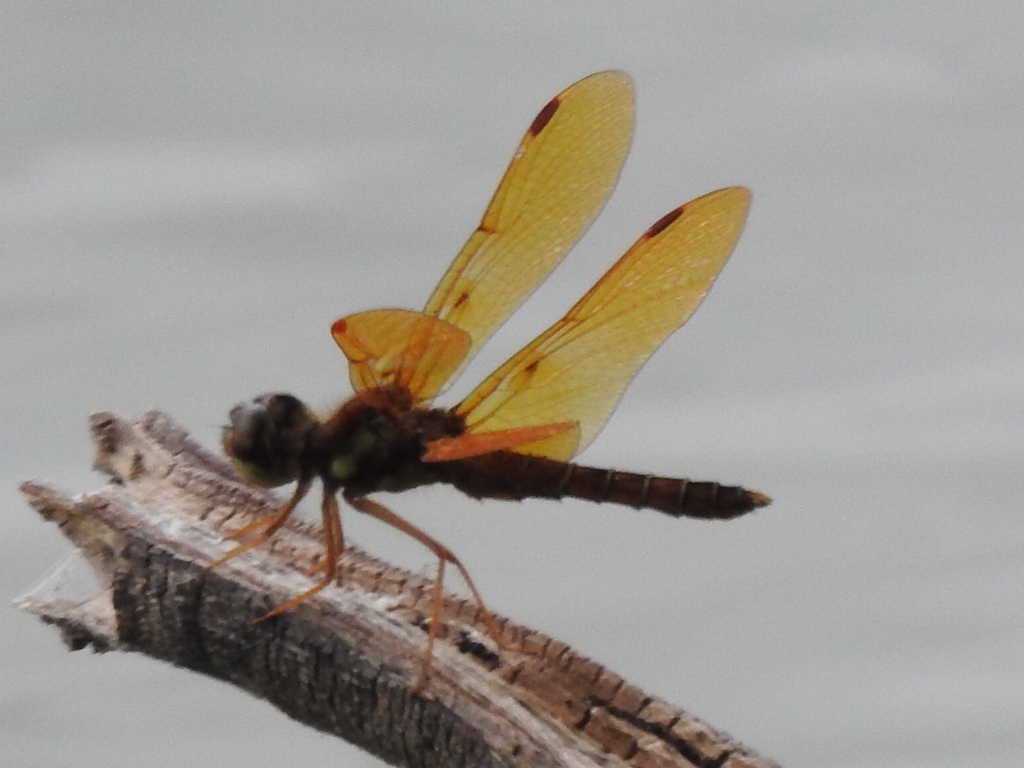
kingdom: Animalia
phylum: Arthropoda
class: Insecta
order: Odonata
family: Libellulidae
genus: Perithemis
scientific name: Perithemis tenera
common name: Eastern amberwing
